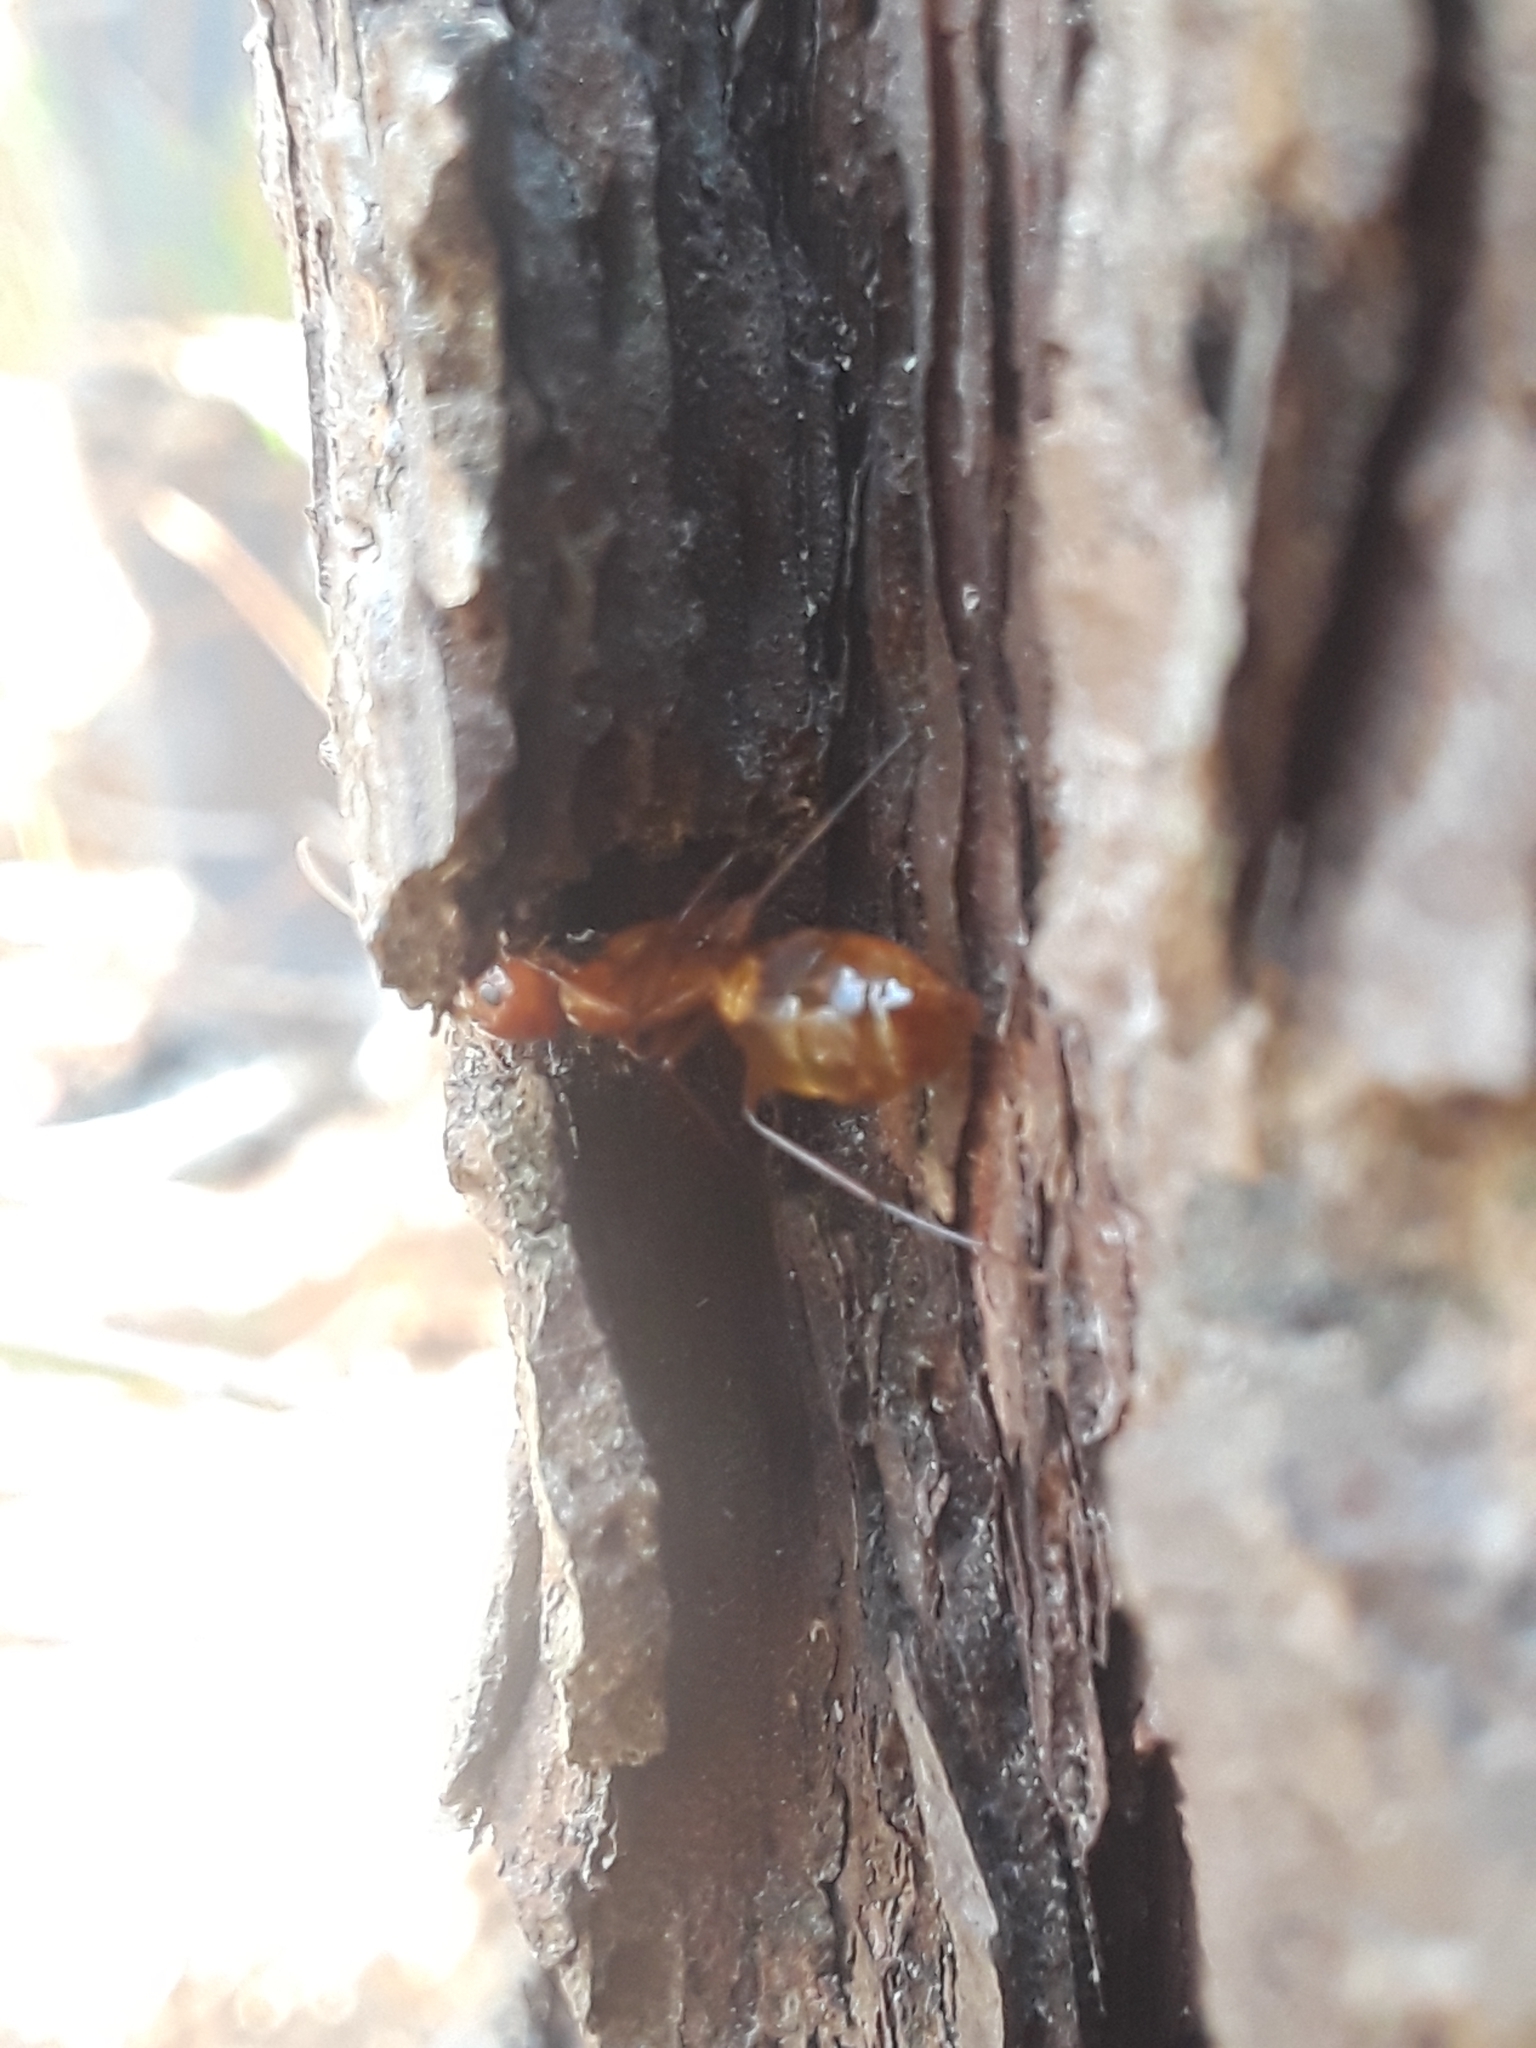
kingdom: Animalia
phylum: Arthropoda
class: Insecta
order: Hymenoptera
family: Formicidae
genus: Camponotus
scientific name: Camponotus castaneus
